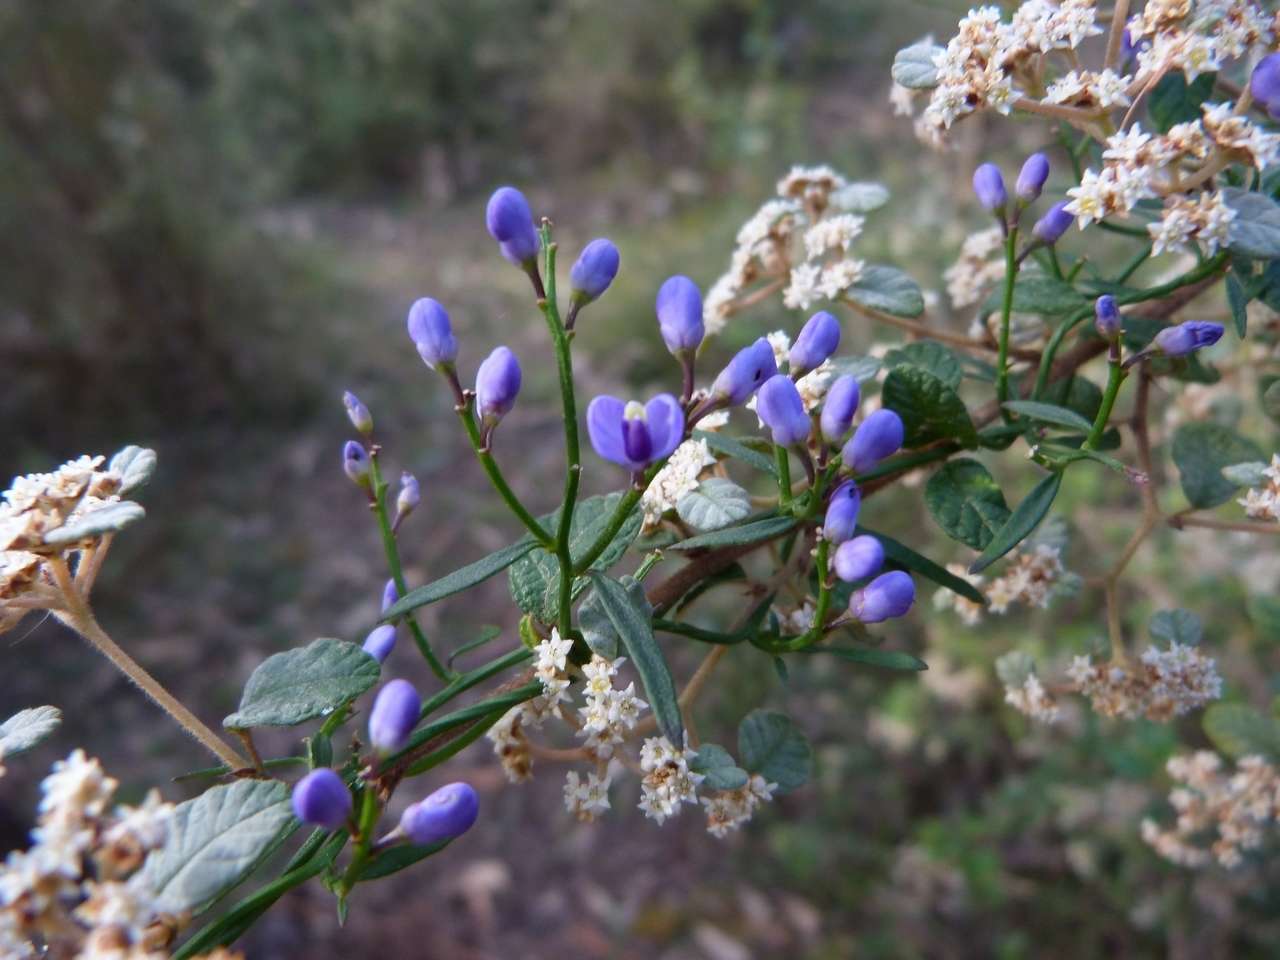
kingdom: Plantae
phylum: Tracheophyta
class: Magnoliopsida
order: Fabales
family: Polygalaceae
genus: Comesperma
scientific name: Comesperma volubile
